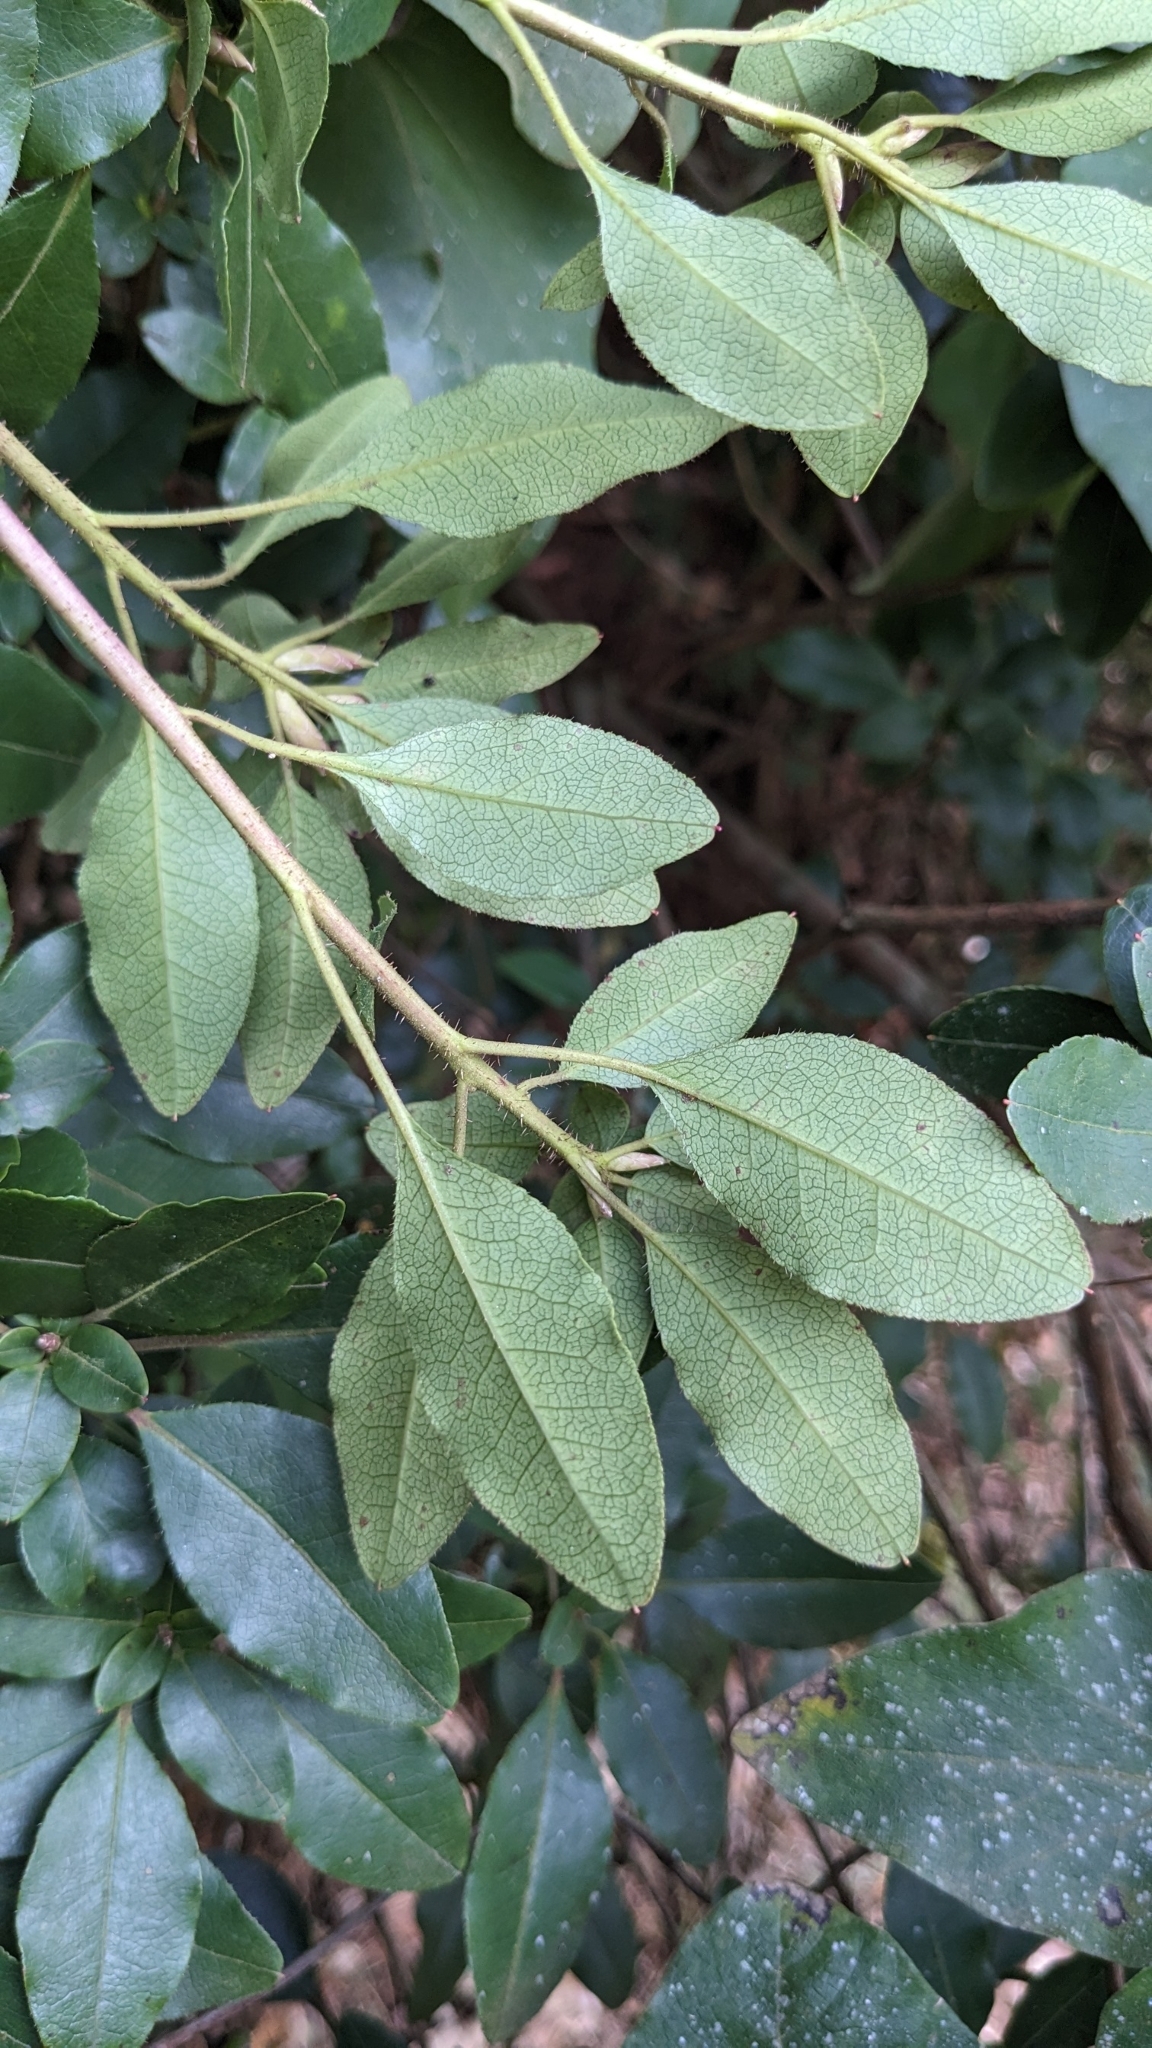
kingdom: Plantae
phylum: Tracheophyta
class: Magnoliopsida
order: Ericales
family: Ericaceae
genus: Rhododendron
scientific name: Rhododendron ovatum
